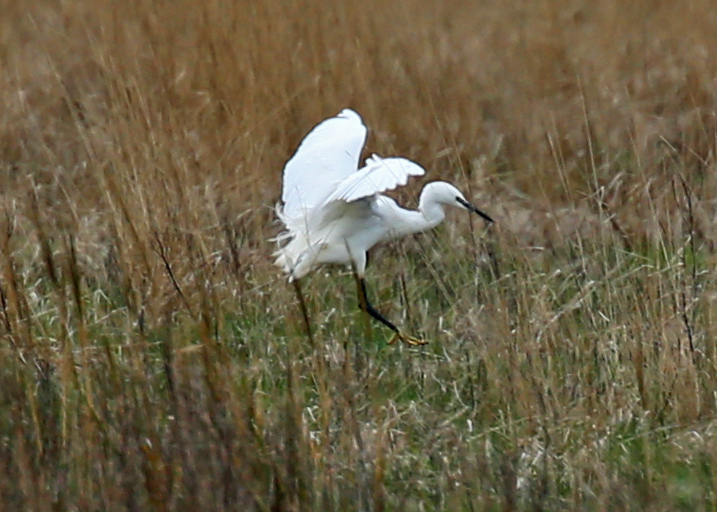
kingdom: Animalia
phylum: Chordata
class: Aves
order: Pelecaniformes
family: Ardeidae
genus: Egretta
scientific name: Egretta garzetta
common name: Little egret
